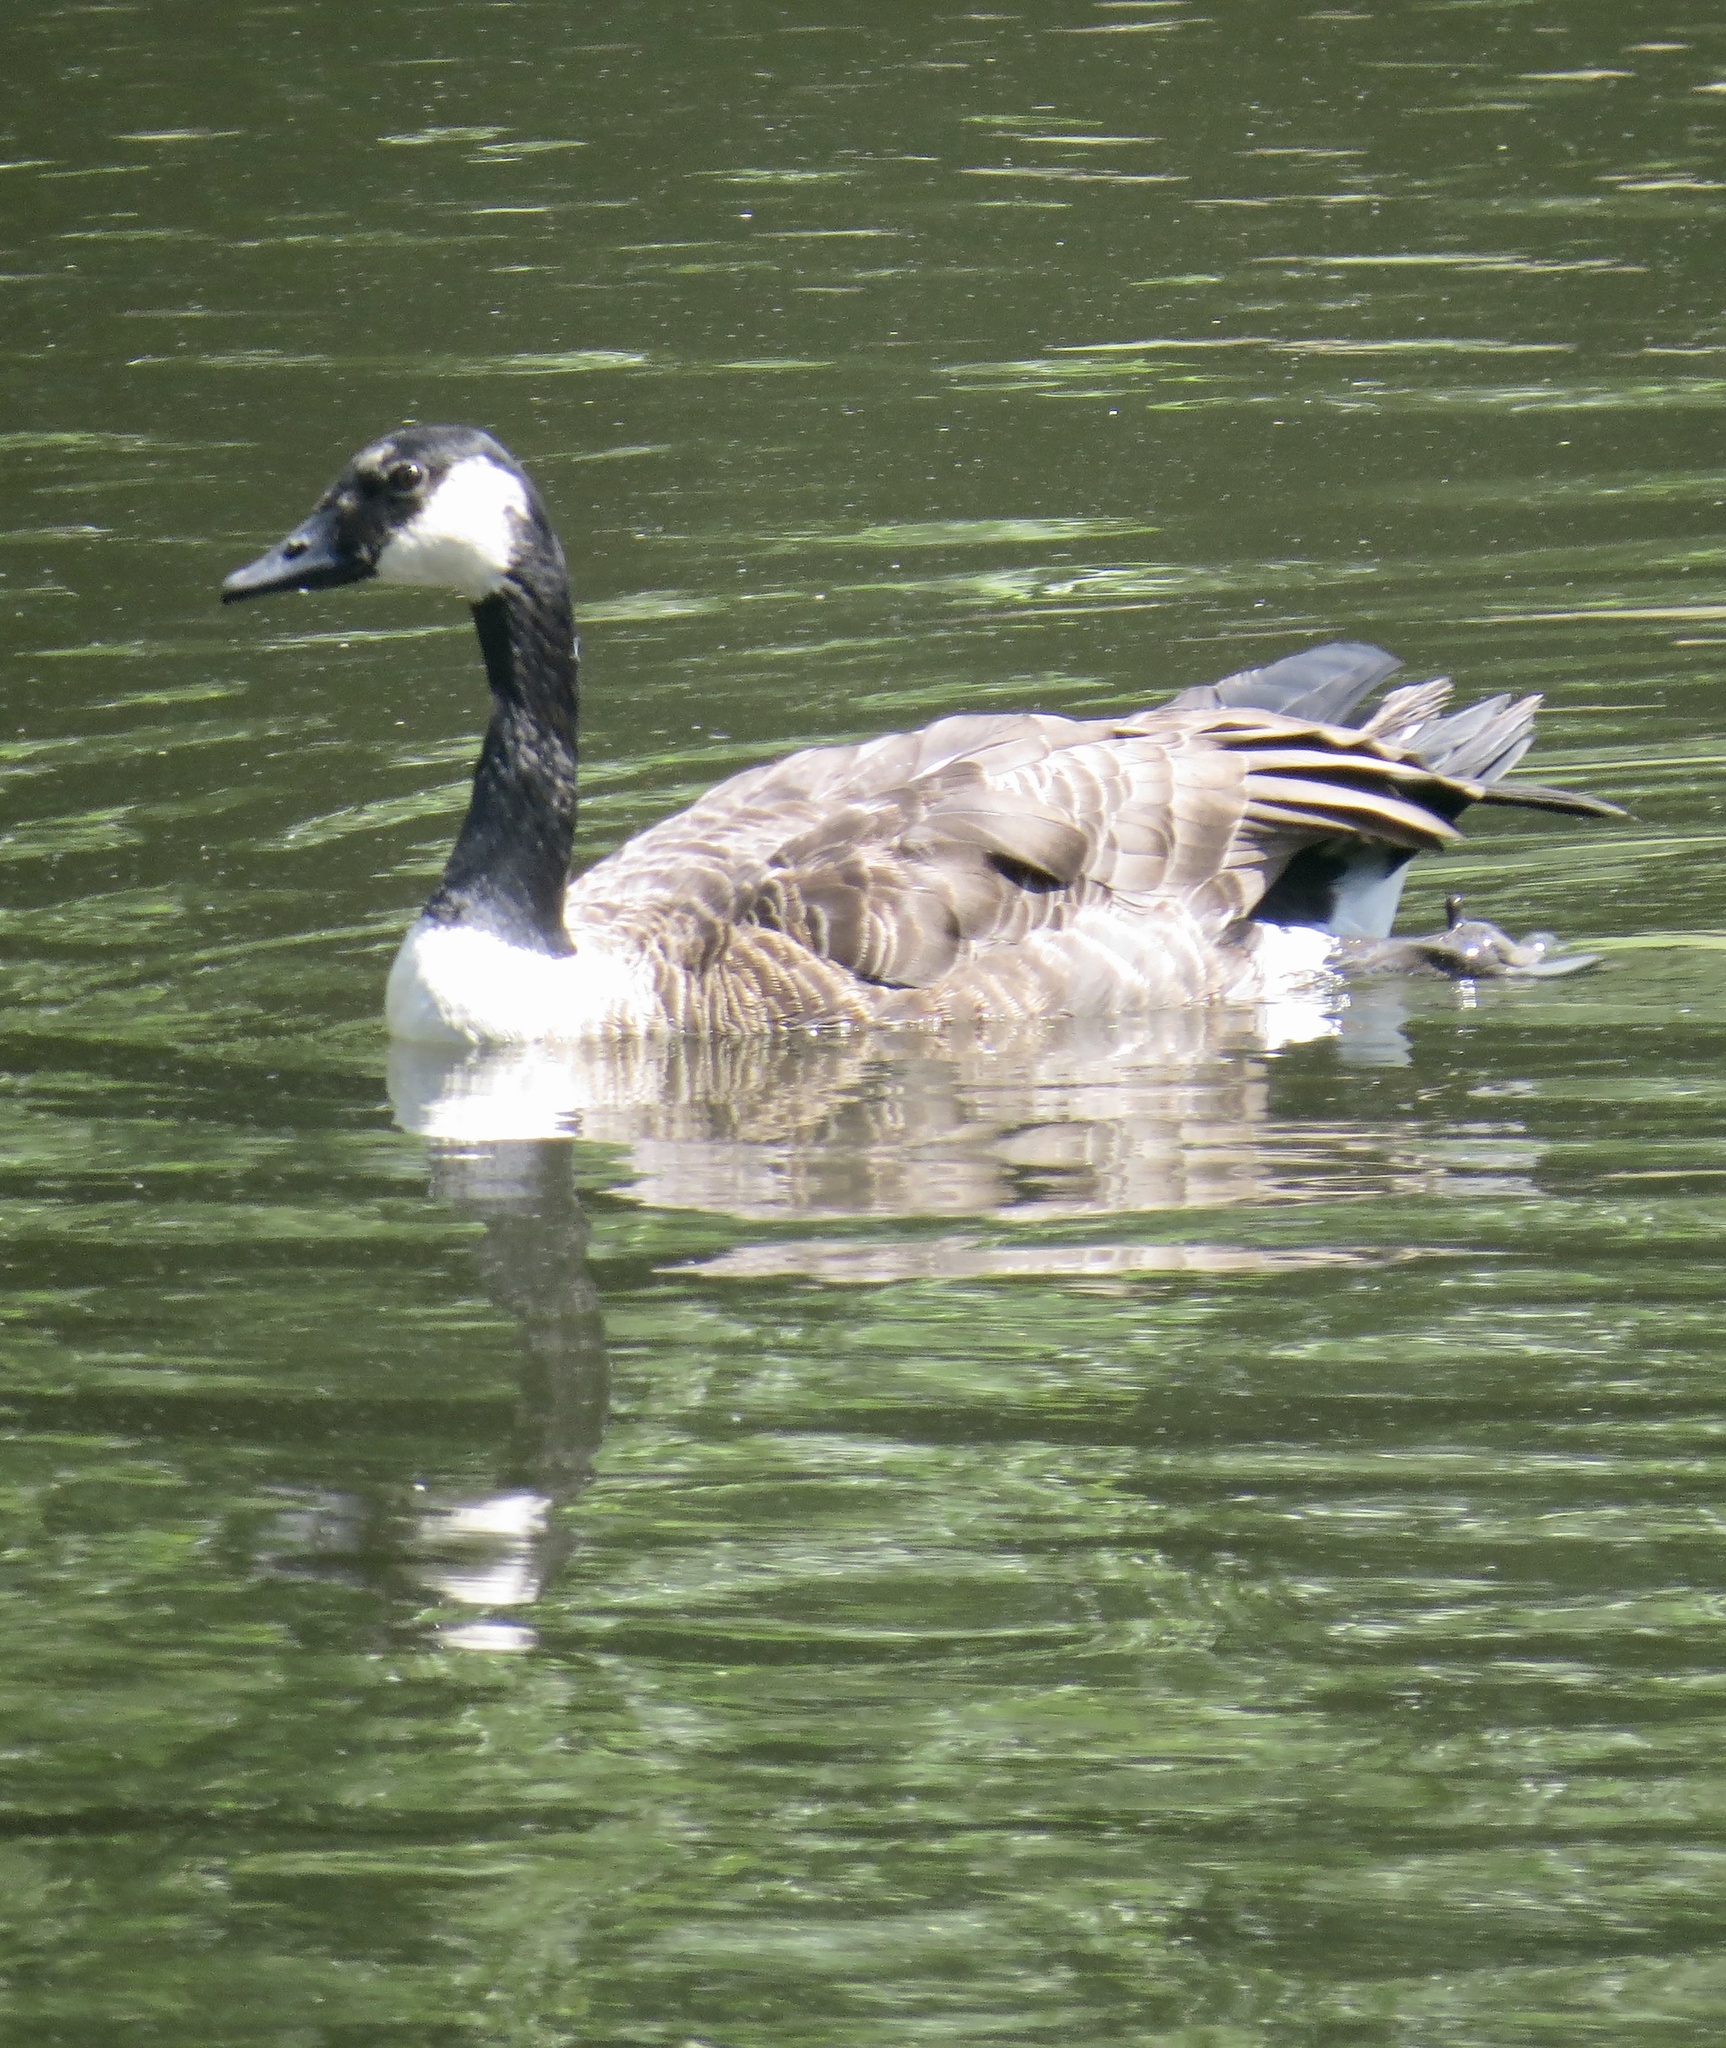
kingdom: Animalia
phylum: Chordata
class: Aves
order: Anseriformes
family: Anatidae
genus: Branta
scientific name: Branta canadensis
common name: Canada goose
